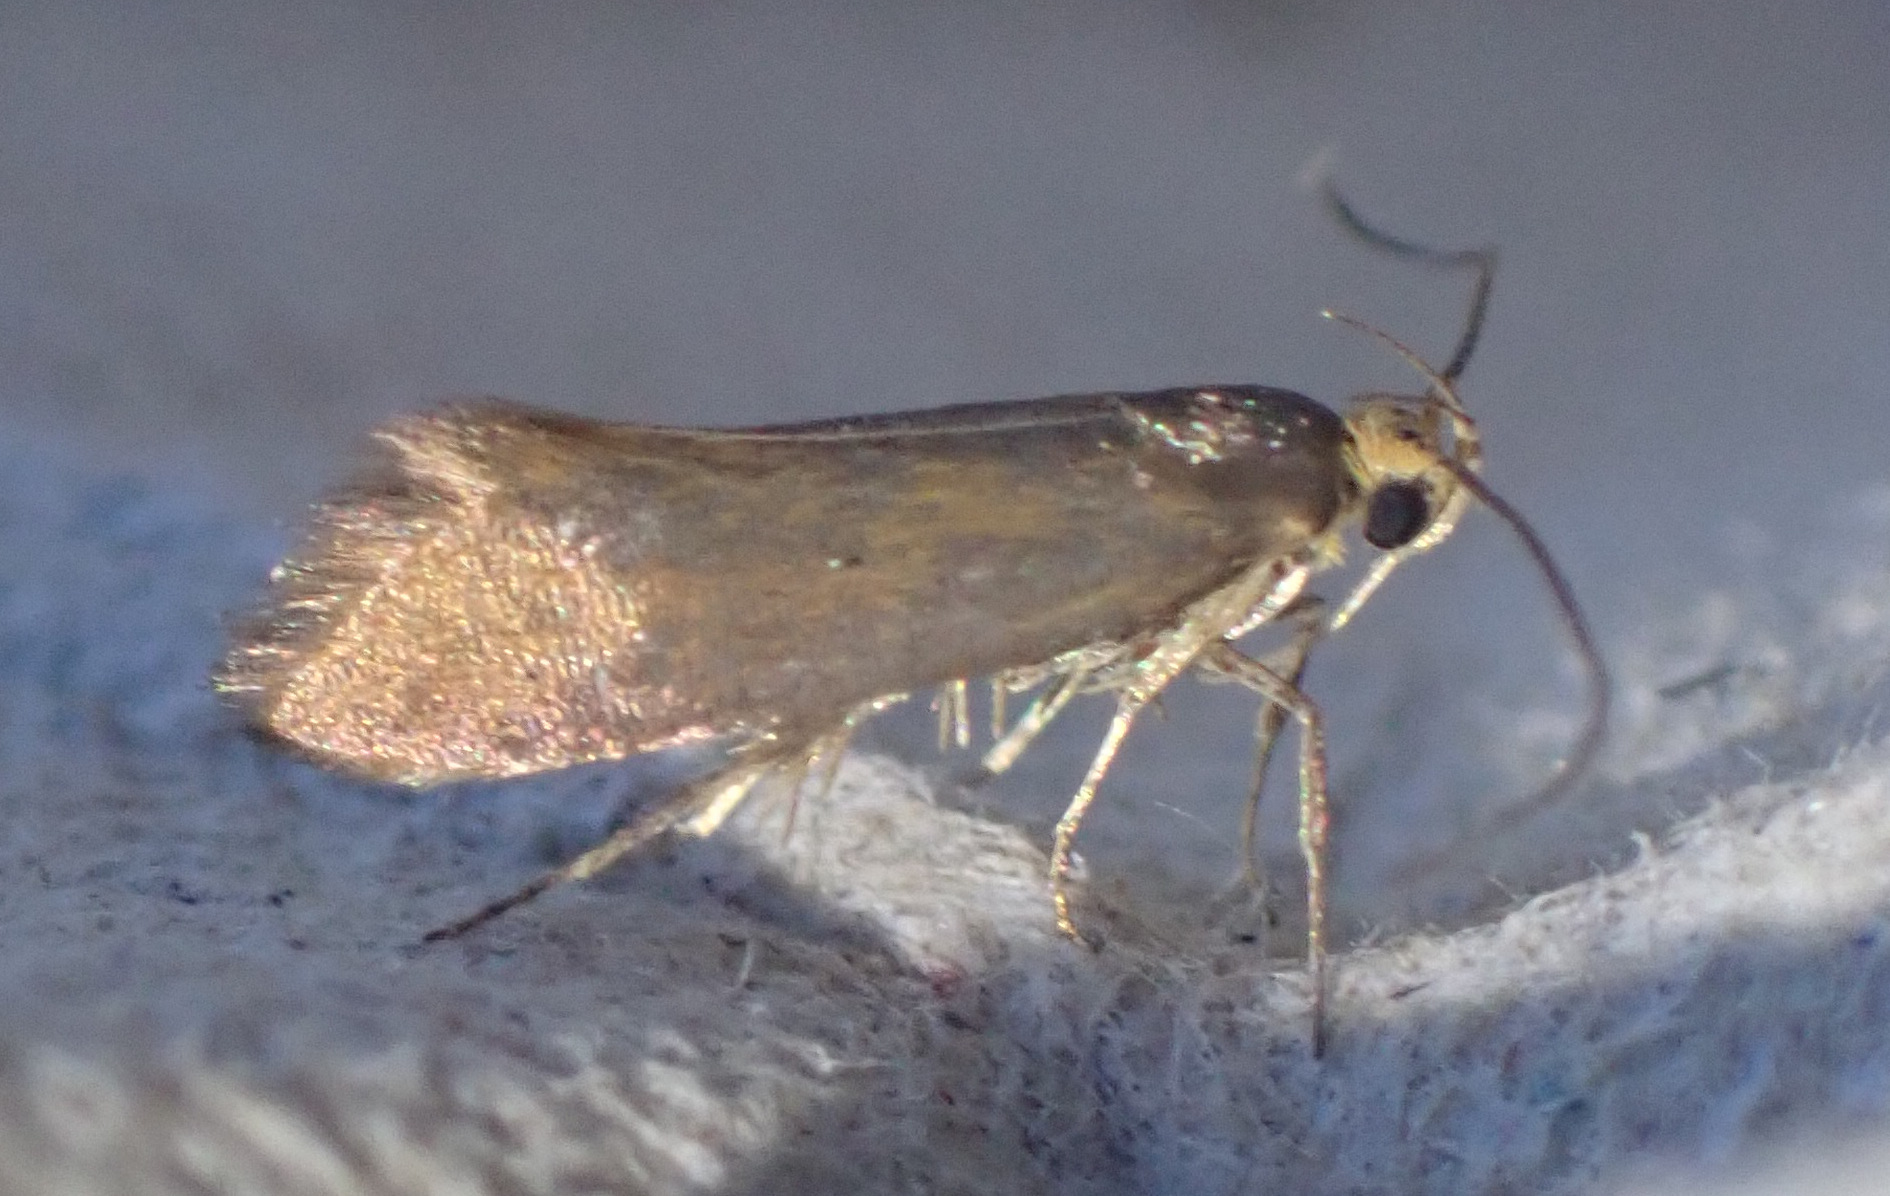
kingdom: Animalia
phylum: Arthropoda
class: Insecta
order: Lepidoptera
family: Oecophoridae
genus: Borkhausenia
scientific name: Borkhausenia Crassa unitella
